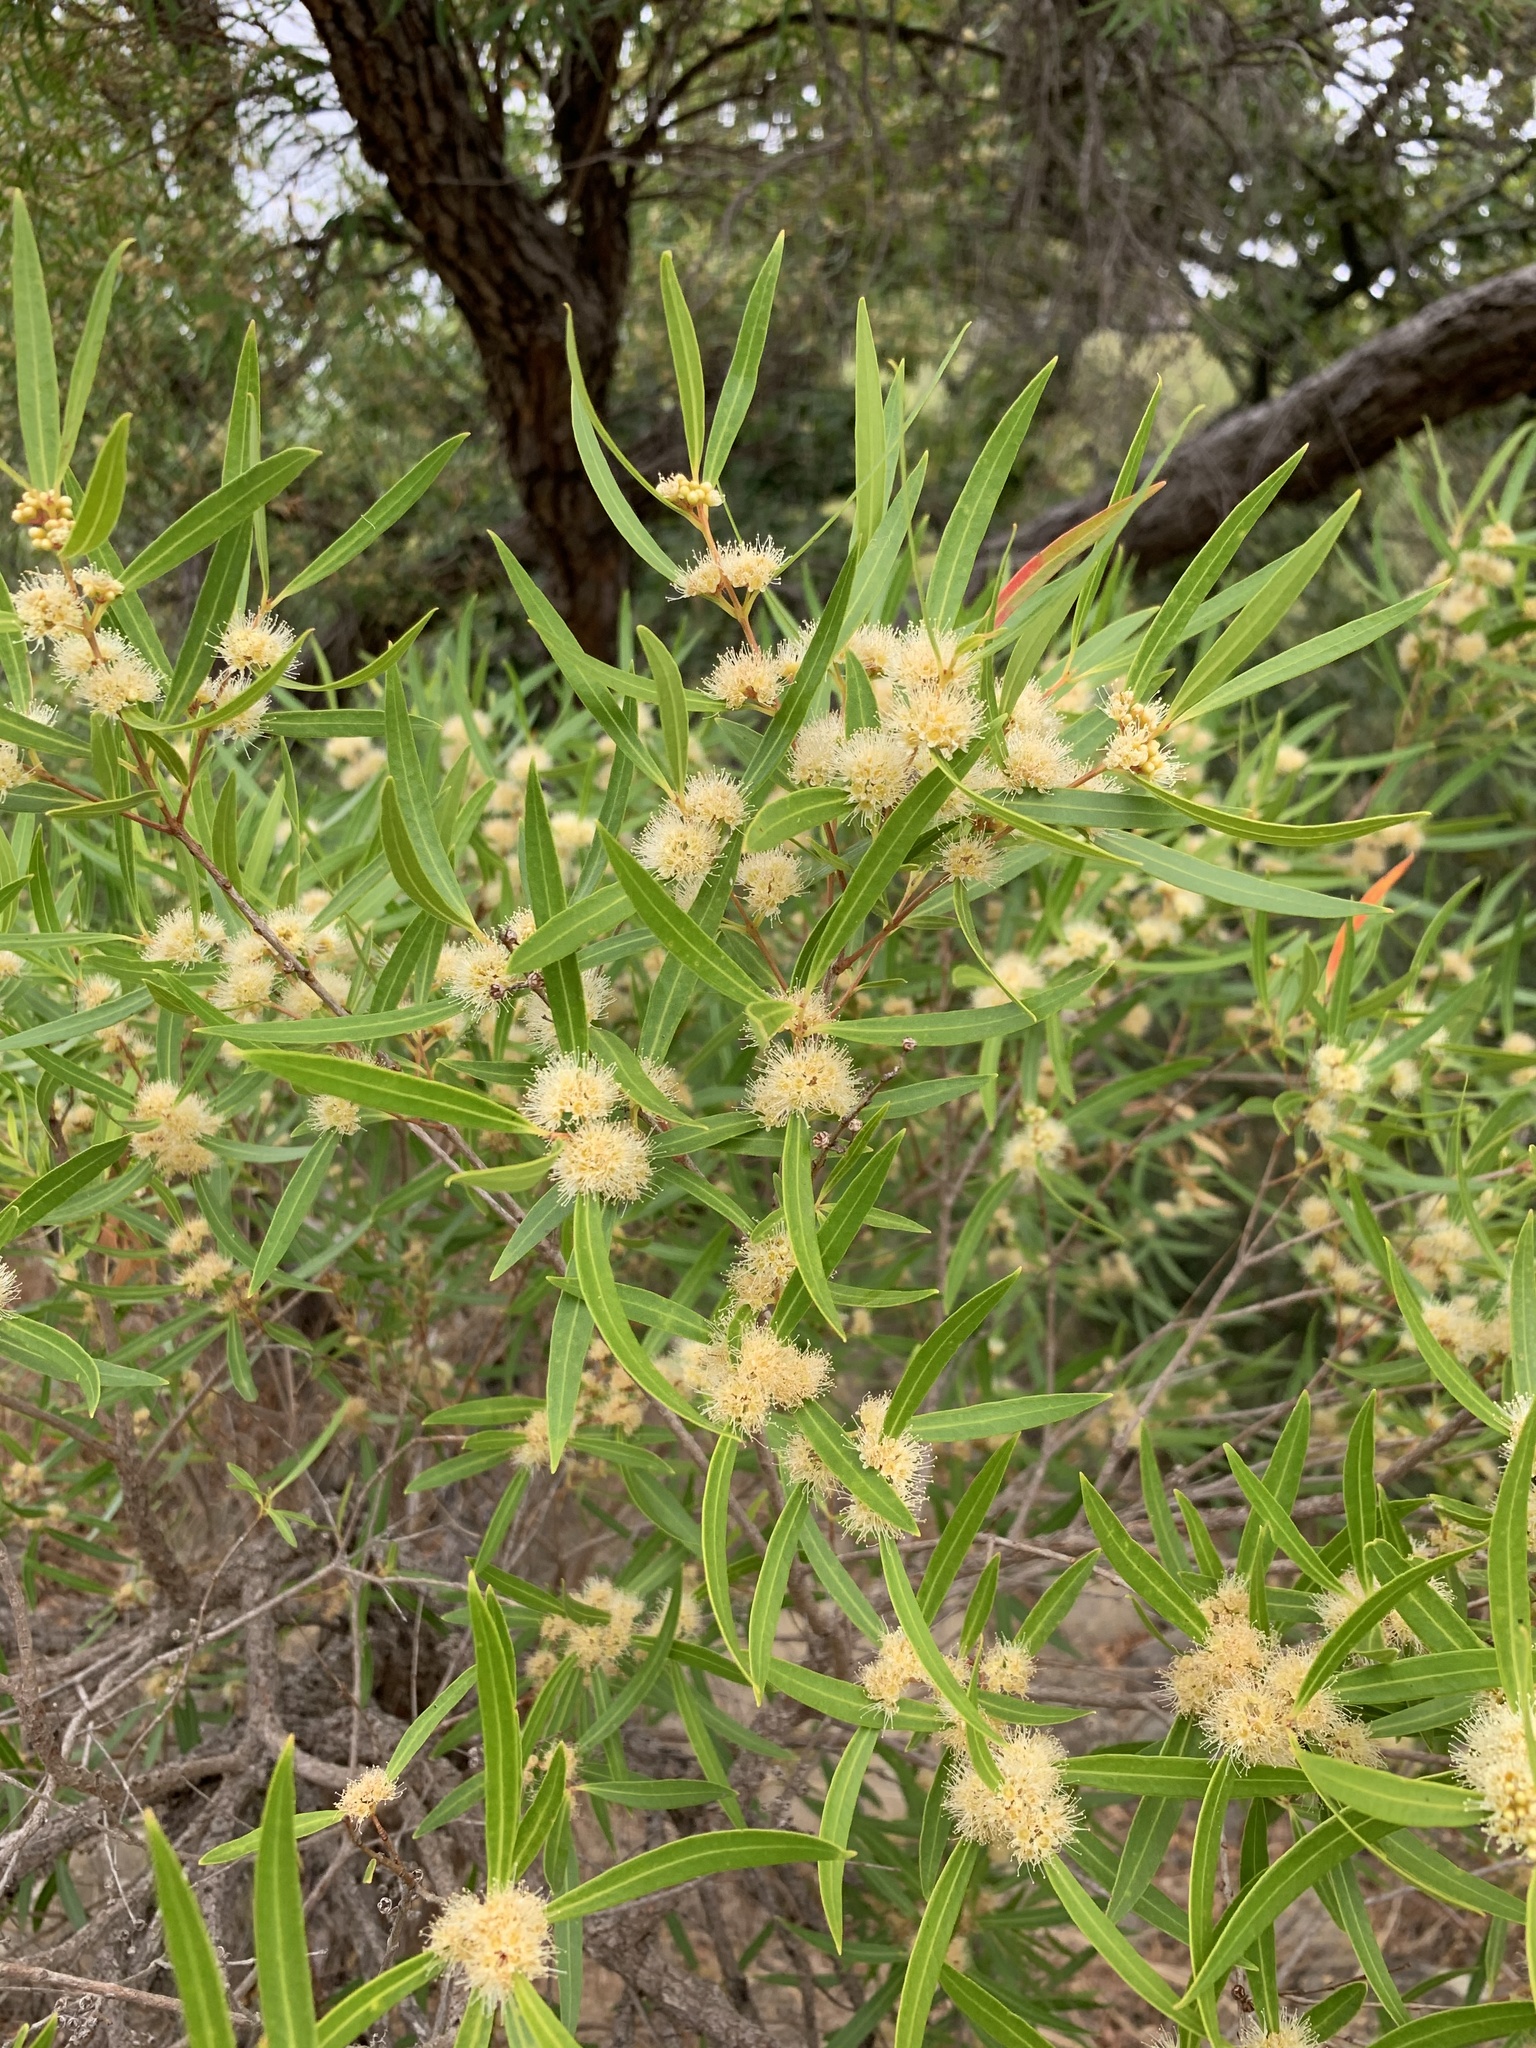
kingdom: Plantae
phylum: Tracheophyta
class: Magnoliopsida
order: Myrtales
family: Myrtaceae
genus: Callistemon
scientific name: Callistemon lanceolatus
